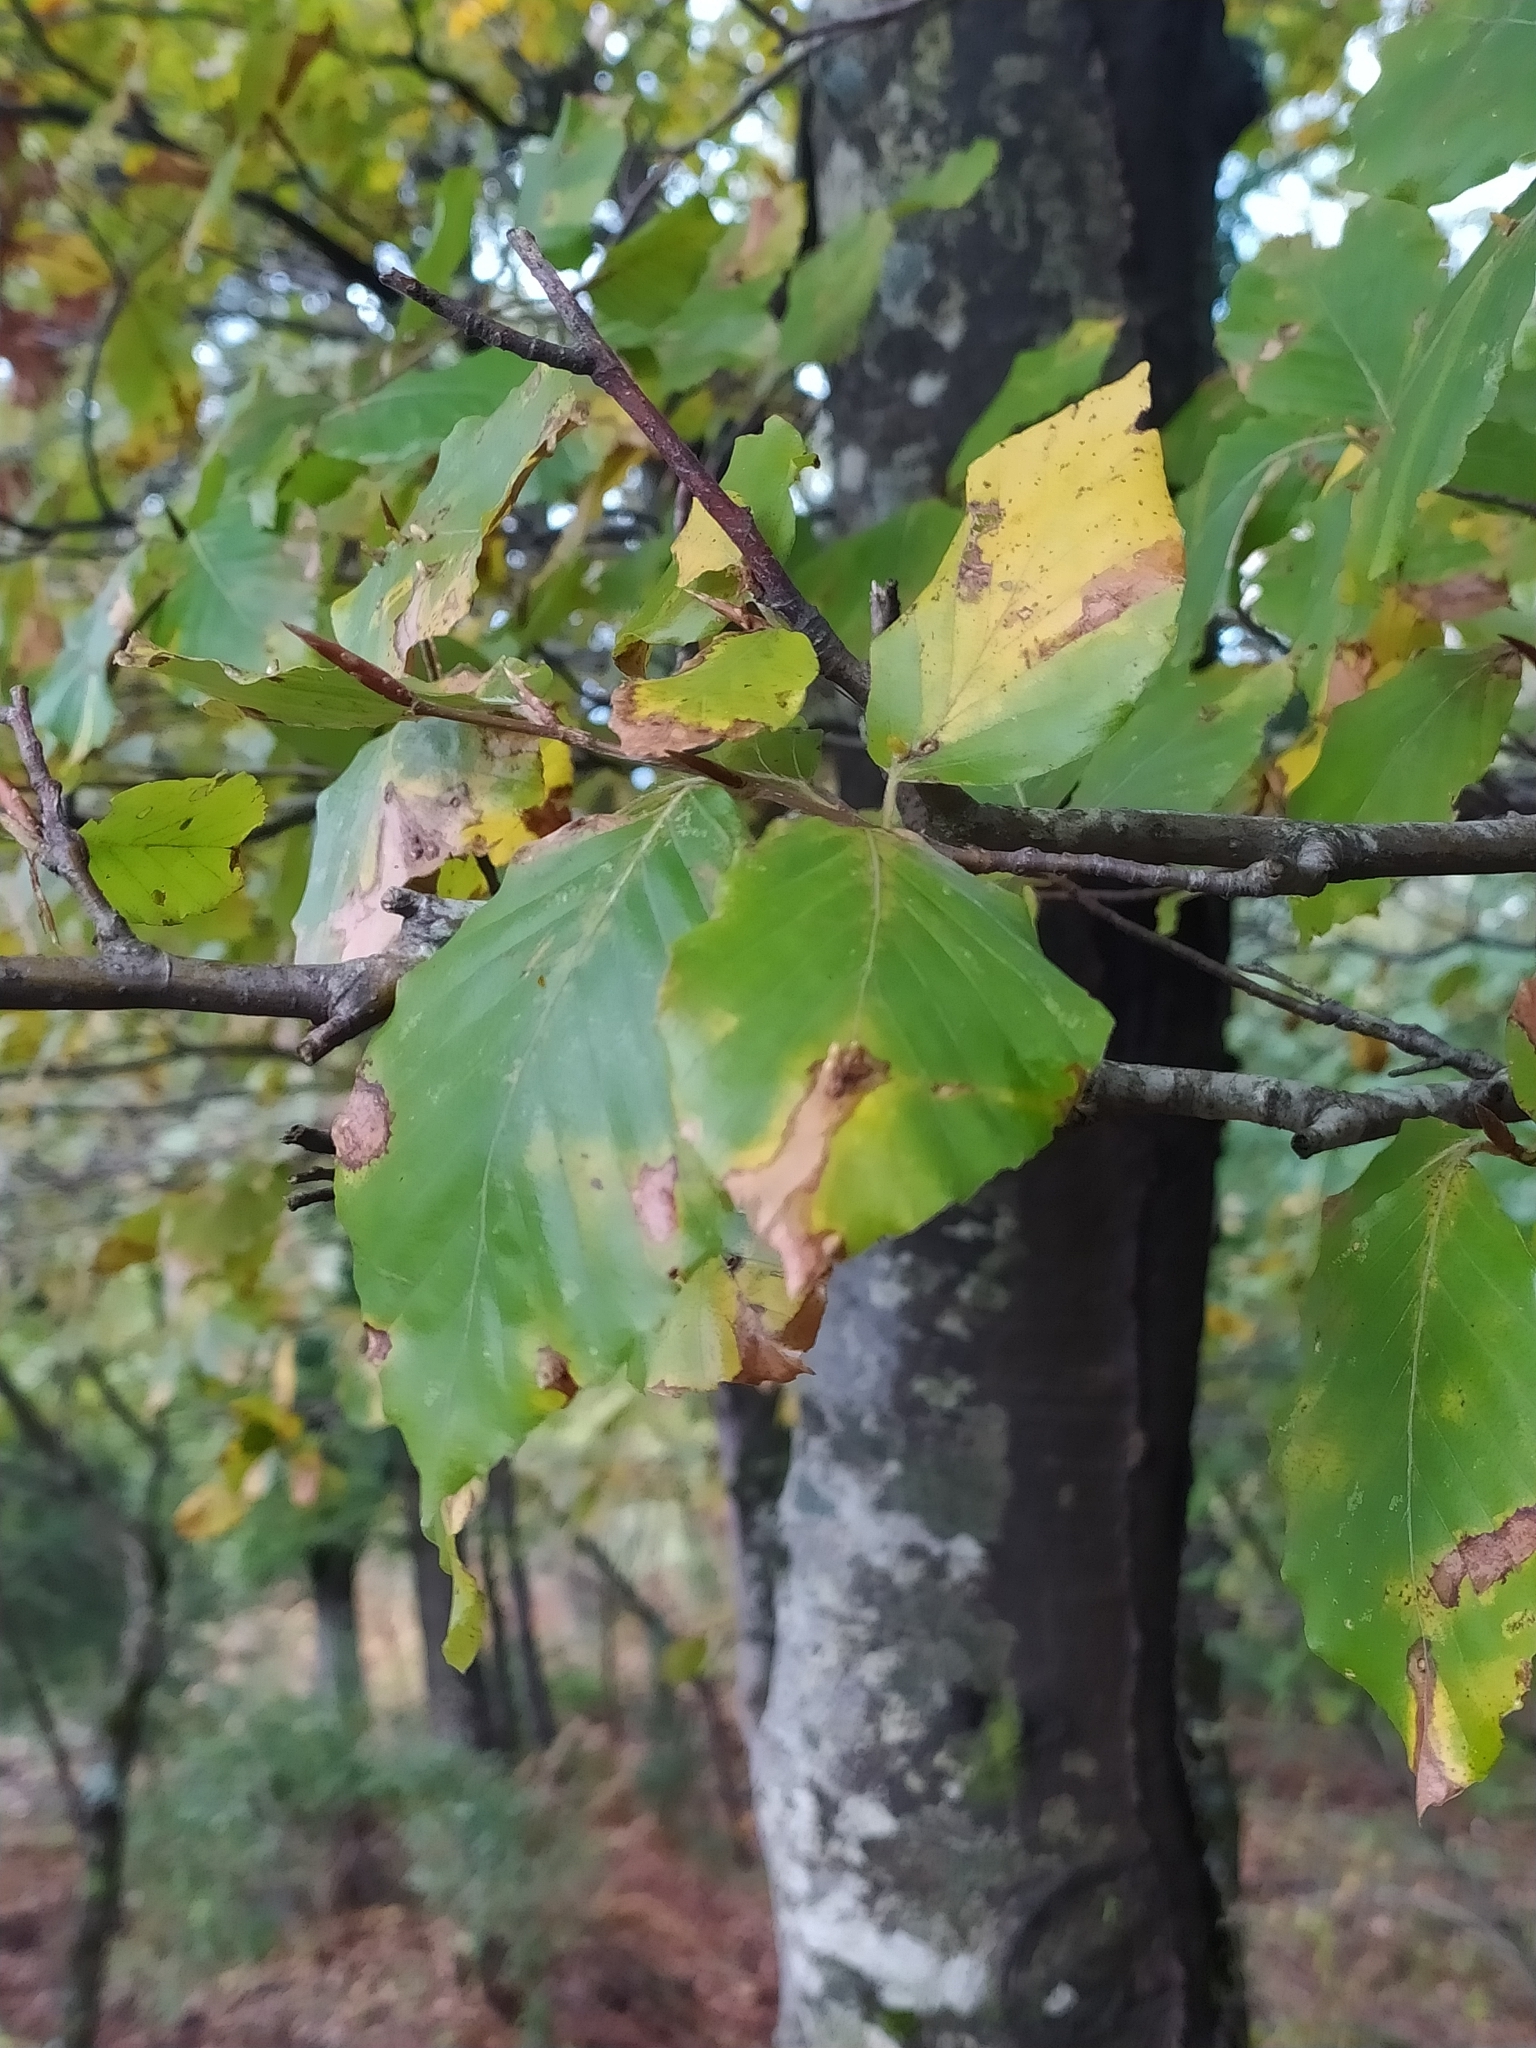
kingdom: Plantae
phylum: Tracheophyta
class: Magnoliopsida
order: Fagales
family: Fagaceae
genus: Fagus
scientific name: Fagus sylvatica
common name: Beech
